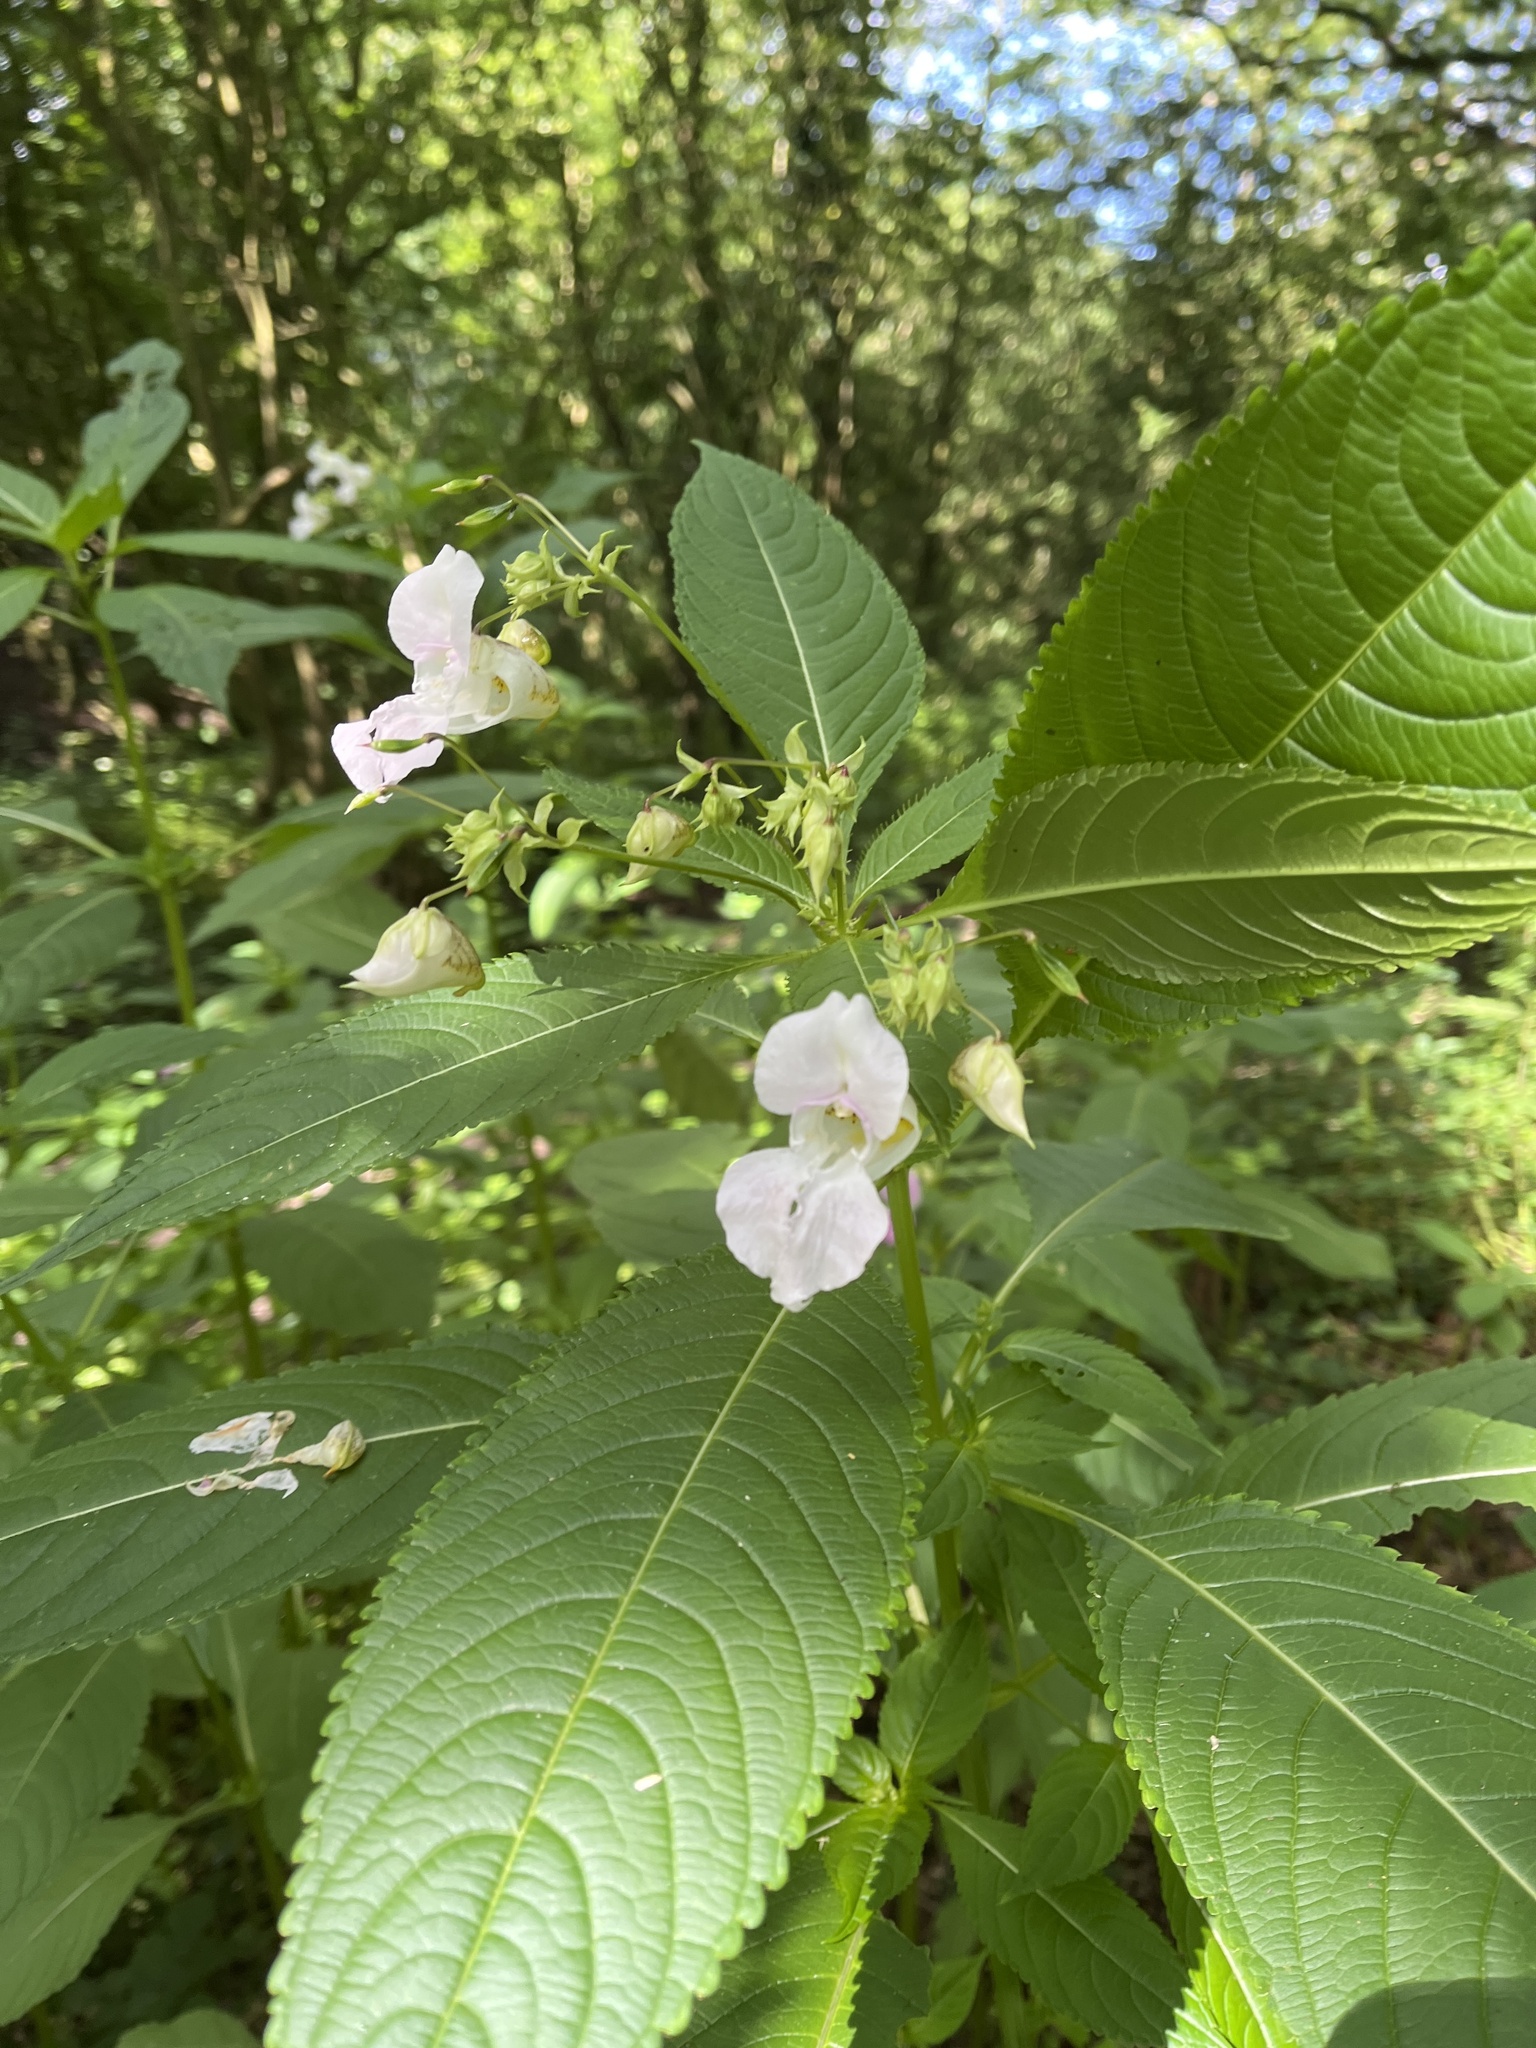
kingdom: Plantae
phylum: Tracheophyta
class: Magnoliopsida
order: Ericales
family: Balsaminaceae
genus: Impatiens
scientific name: Impatiens glandulifera
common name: Himalayan balsam
